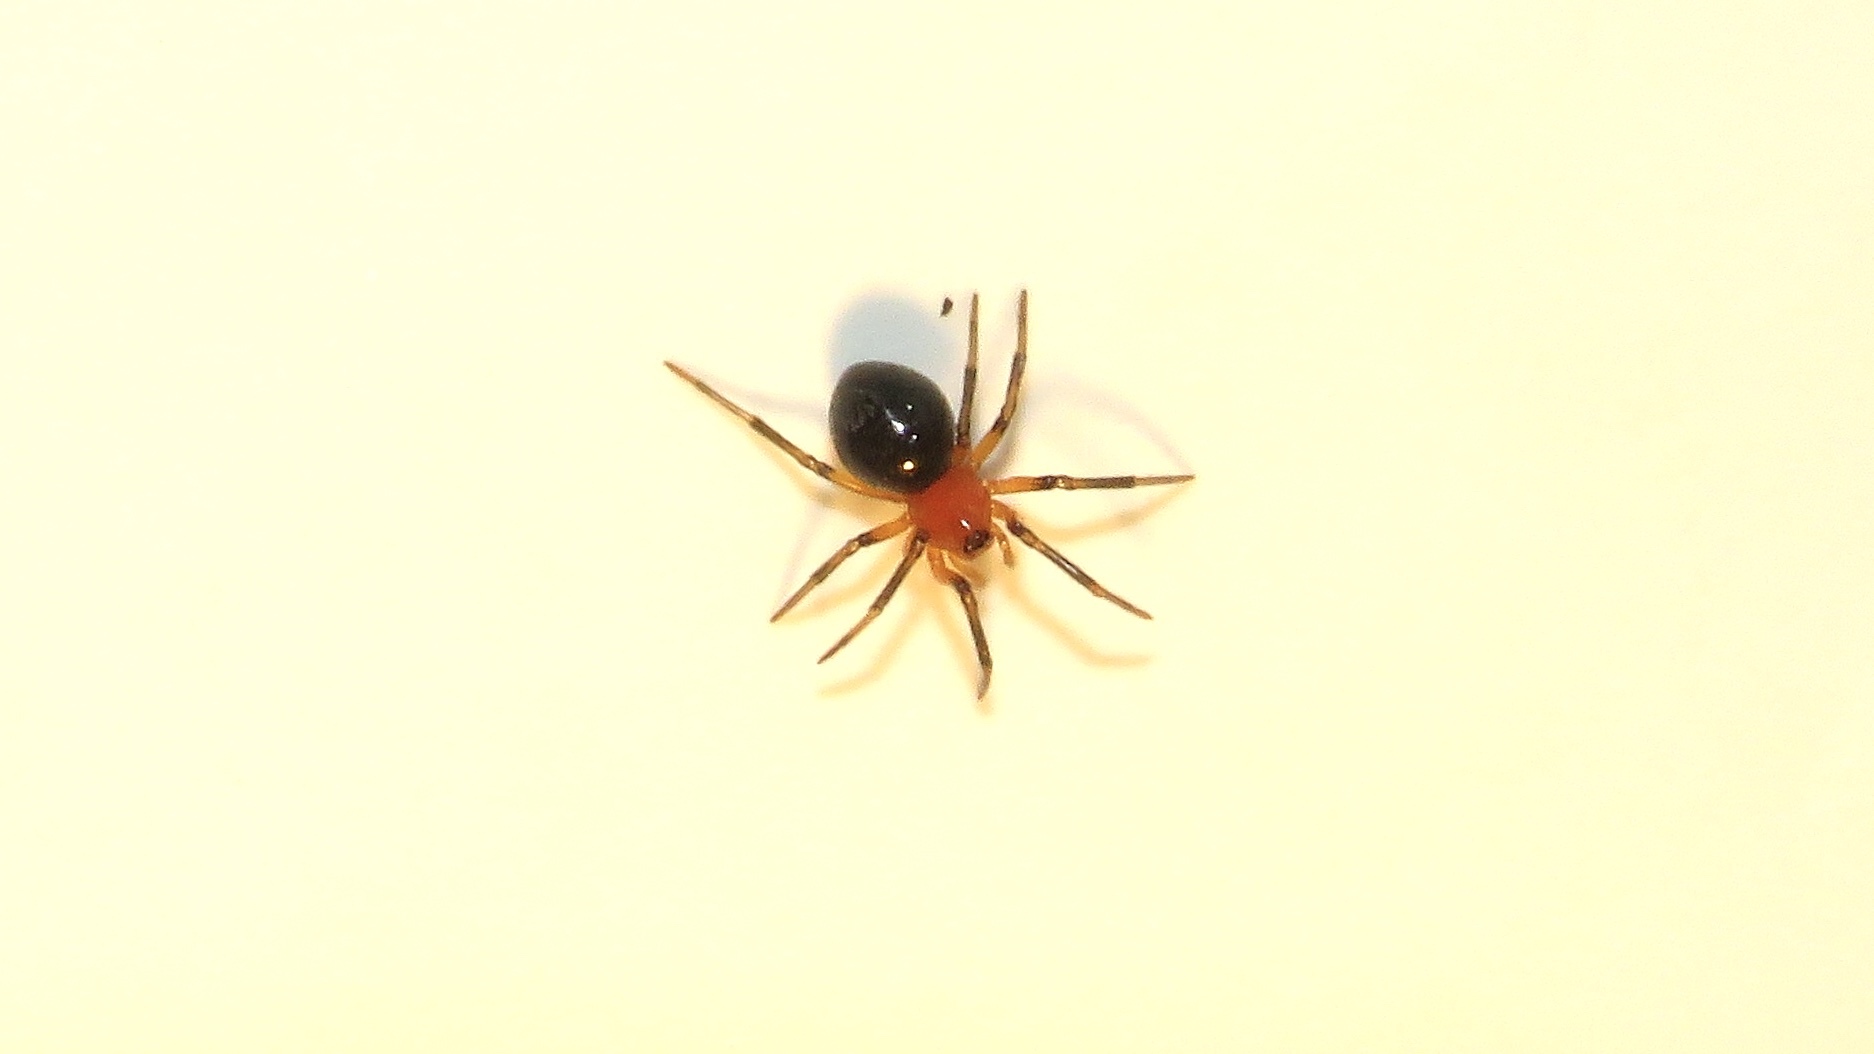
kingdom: Animalia
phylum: Arthropoda
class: Arachnida
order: Araneae
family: Linyphiidae
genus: Hypselistes
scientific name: Hypselistes florens
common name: Peatland sheetweb weaver
